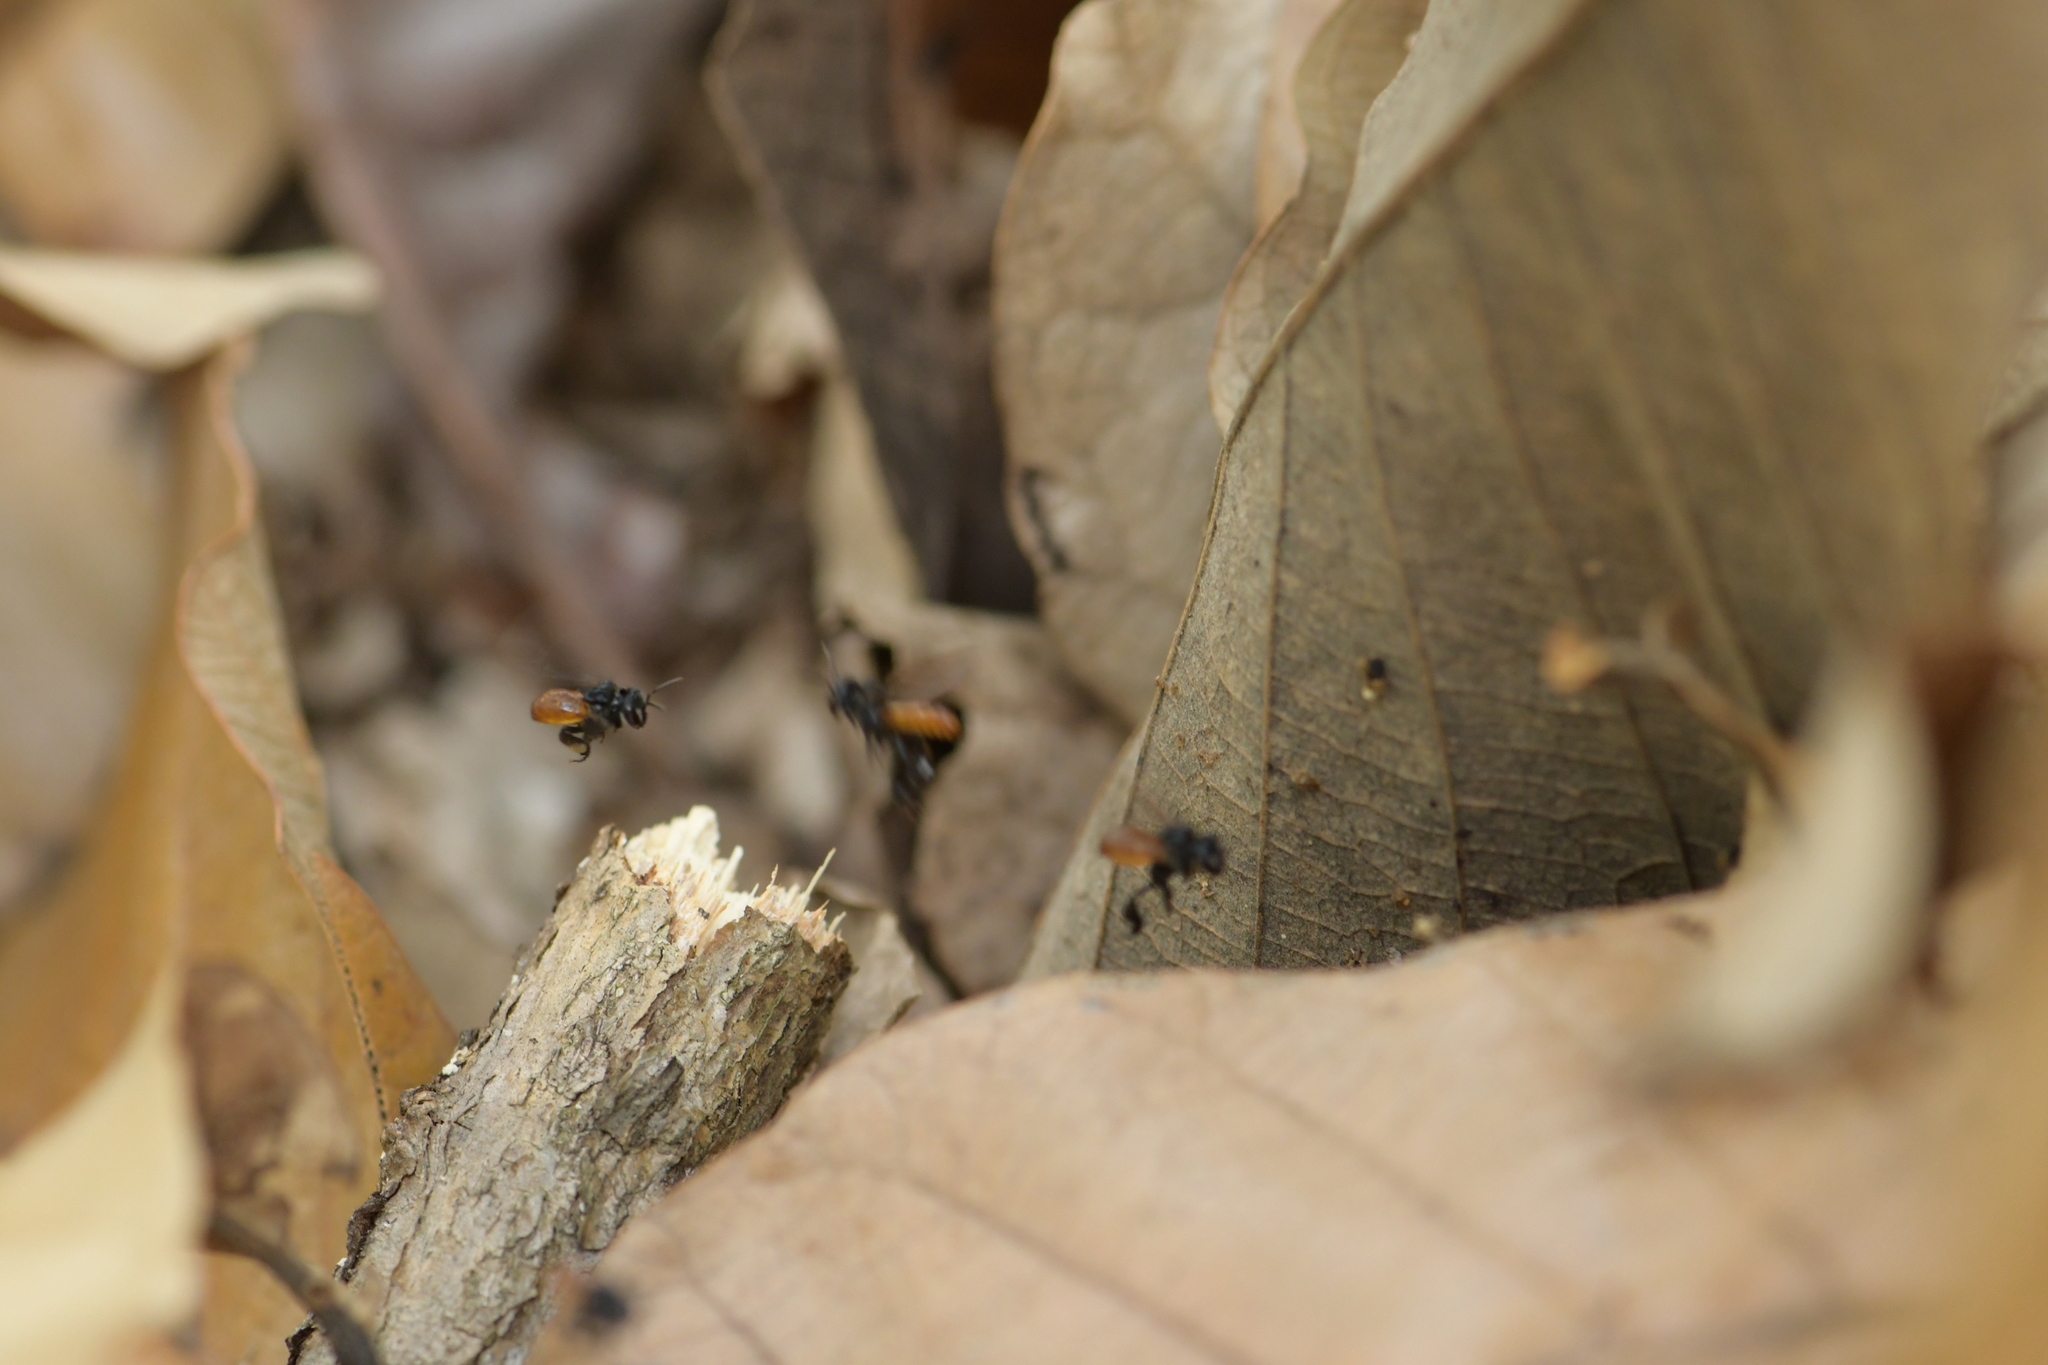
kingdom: Animalia
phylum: Arthropoda
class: Insecta
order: Hymenoptera
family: Apidae
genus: Trigona
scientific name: Trigona fulviventris
